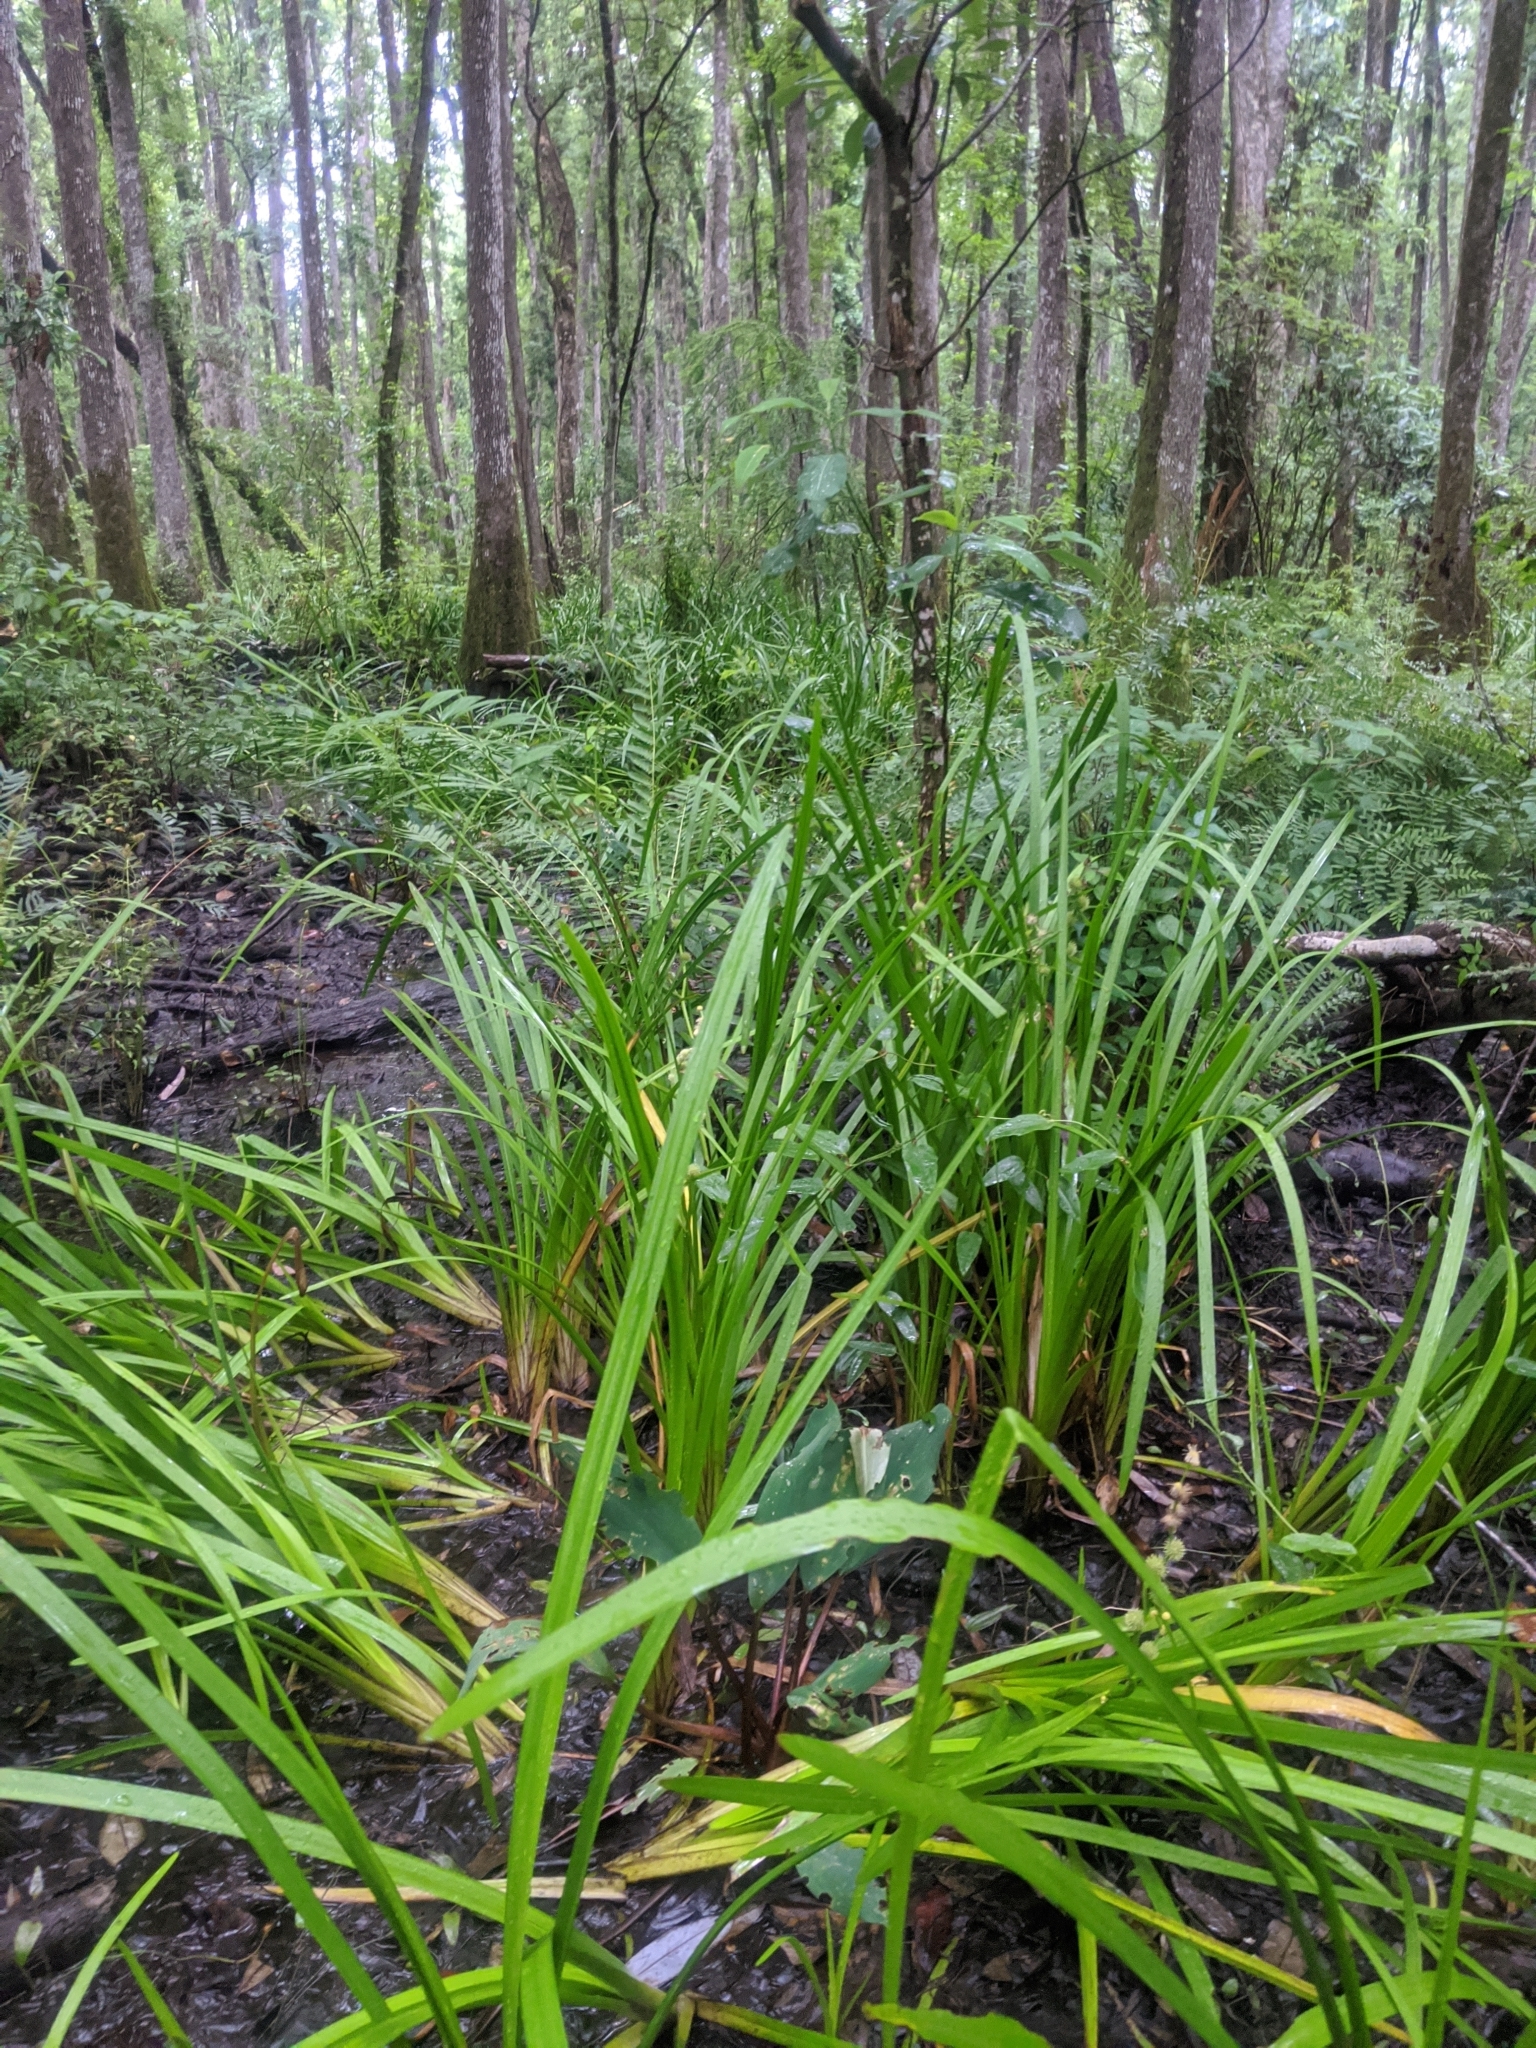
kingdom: Plantae
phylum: Tracheophyta
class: Liliopsida
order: Poales
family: Typhaceae
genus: Sparganium
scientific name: Sparganium americanum
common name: American burreed
